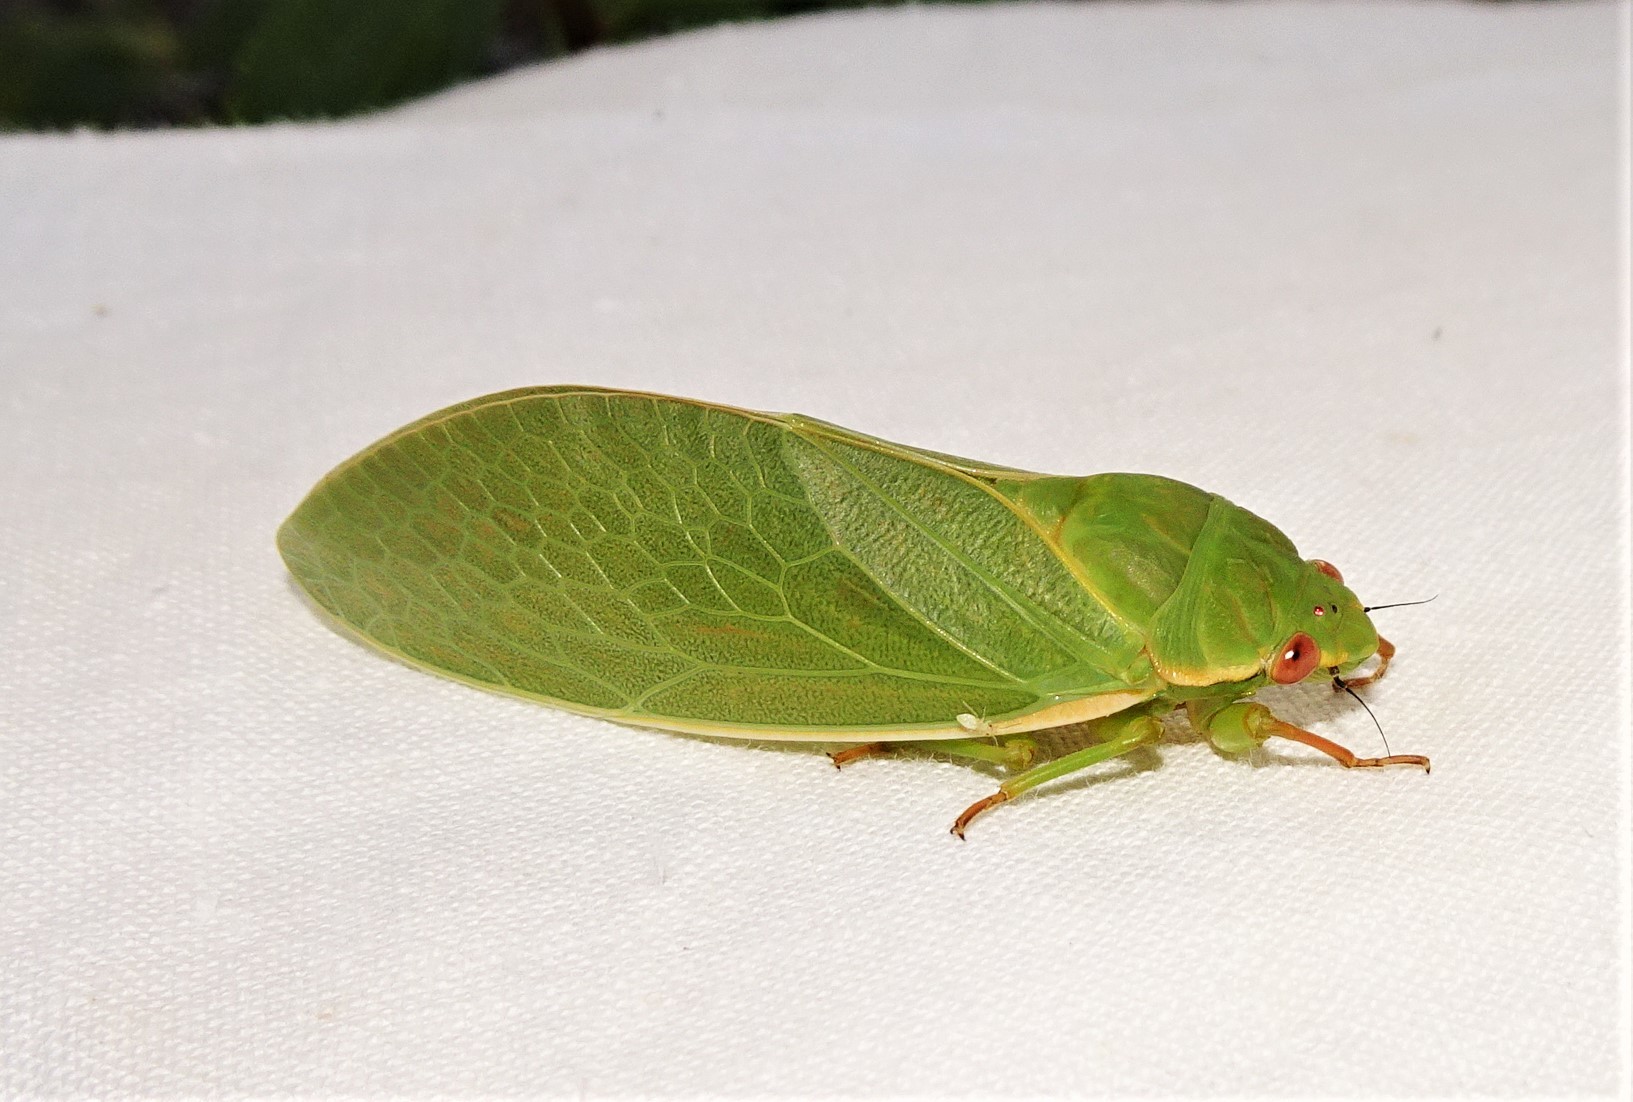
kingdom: Animalia
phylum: Arthropoda
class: Insecta
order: Hemiptera
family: Cicadidae
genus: Cystosoma
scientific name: Cystosoma saundersii
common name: Bladder cicada
